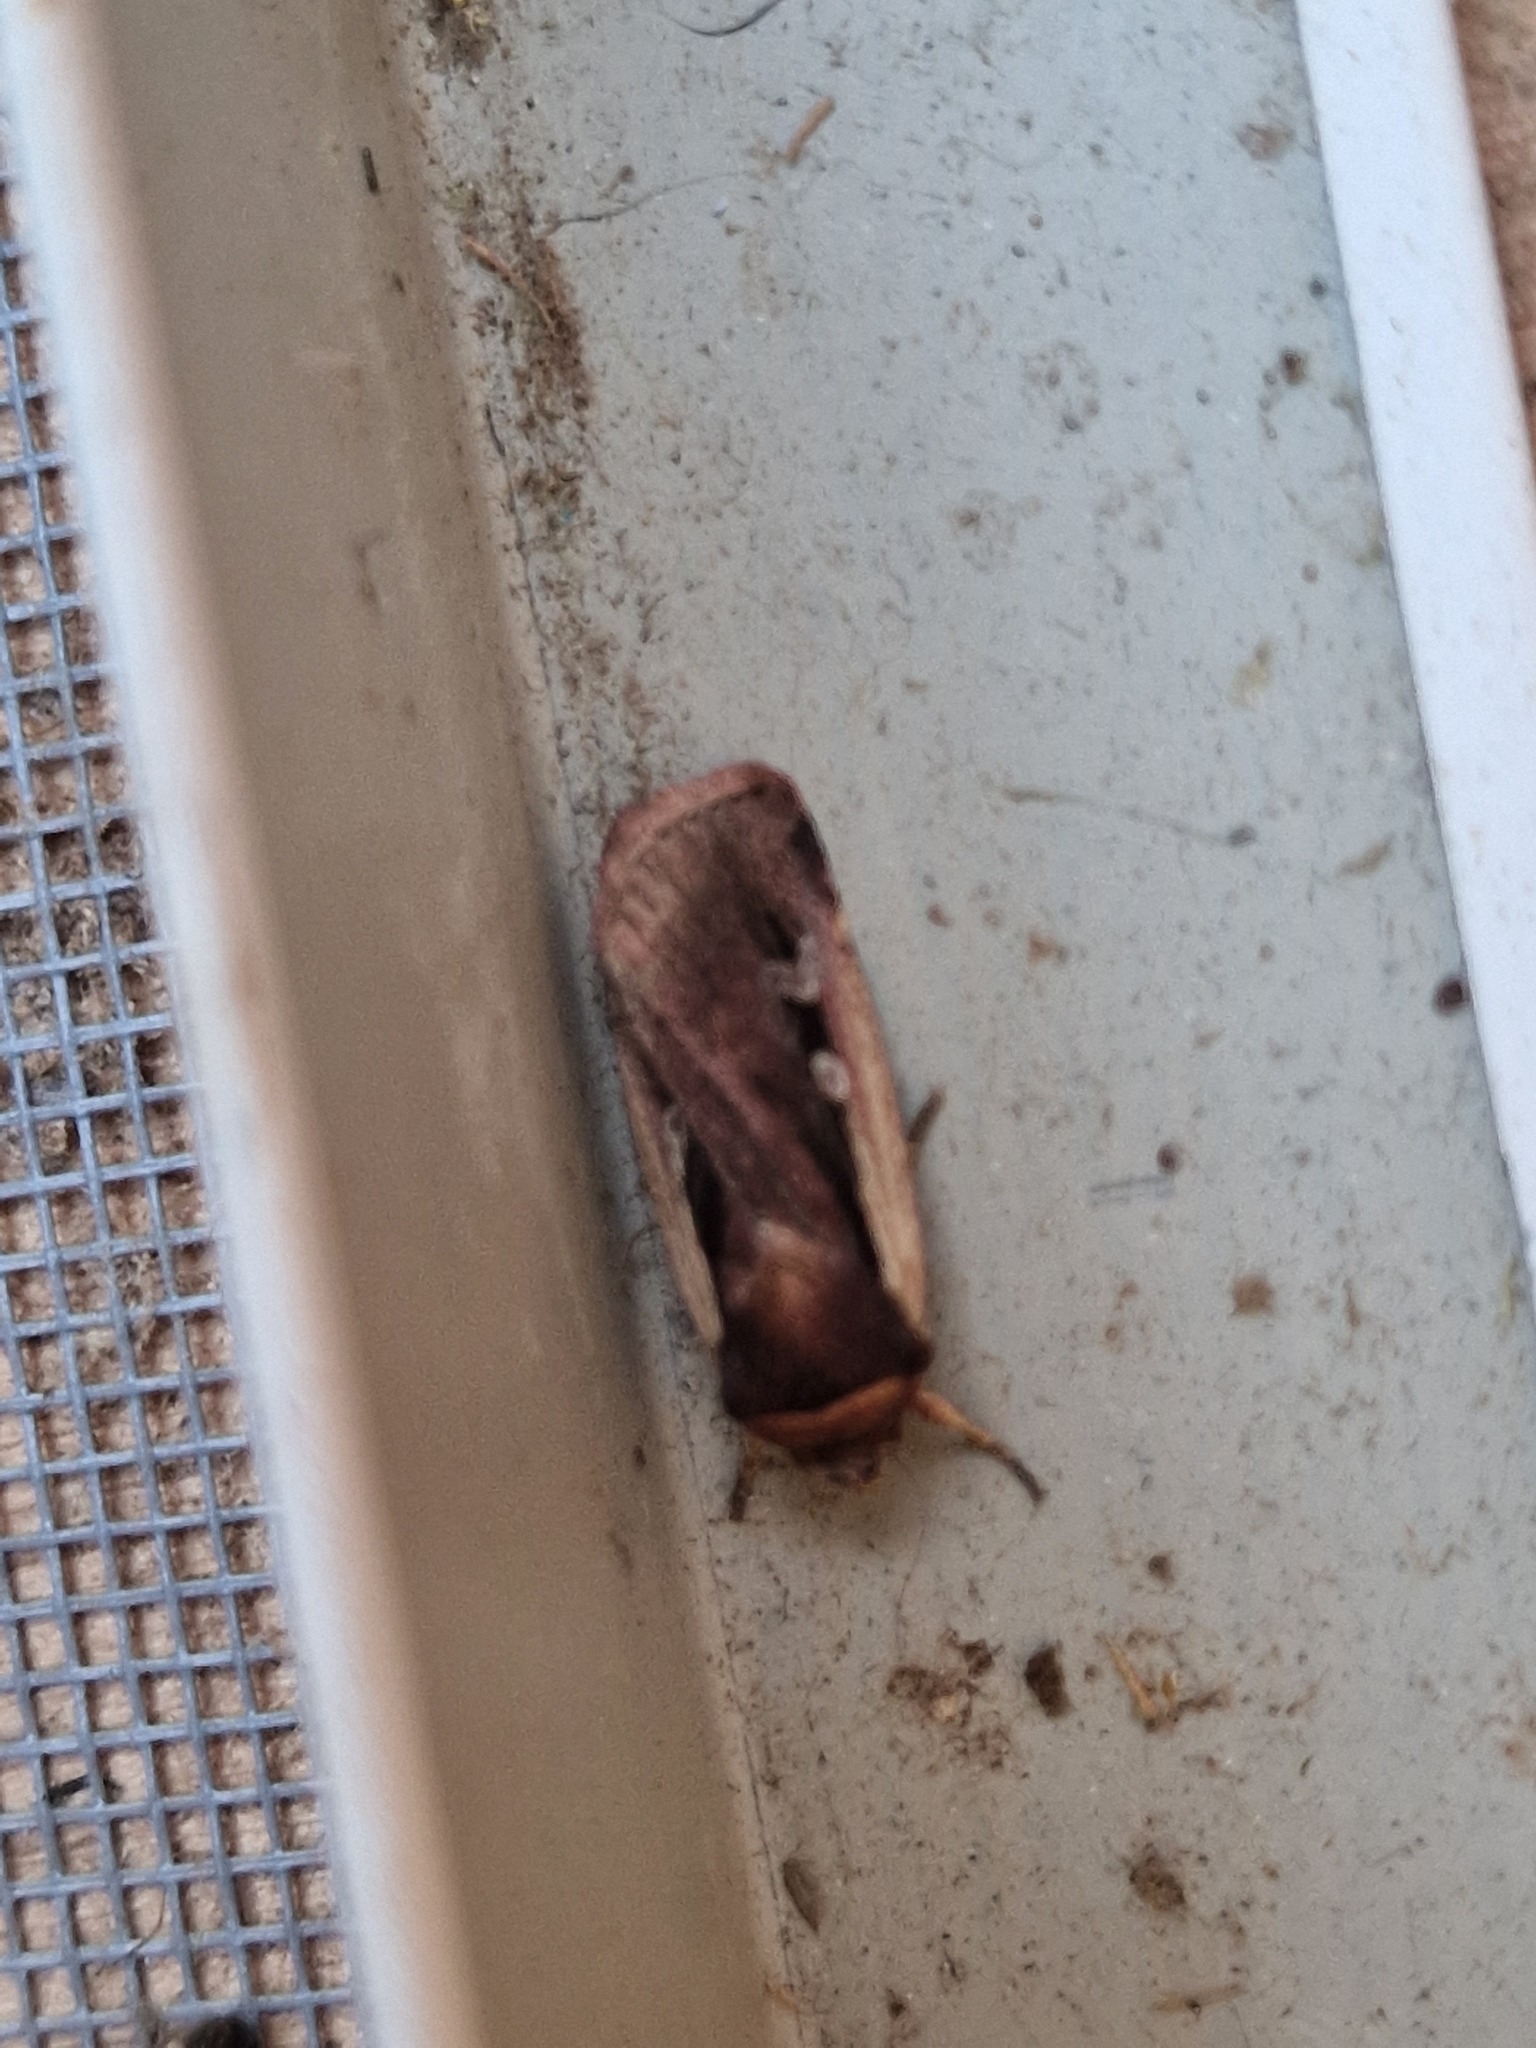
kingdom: Animalia
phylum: Arthropoda
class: Insecta
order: Lepidoptera
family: Noctuidae
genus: Ochropleura
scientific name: Ochropleura plecta
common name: Flame shoulder
